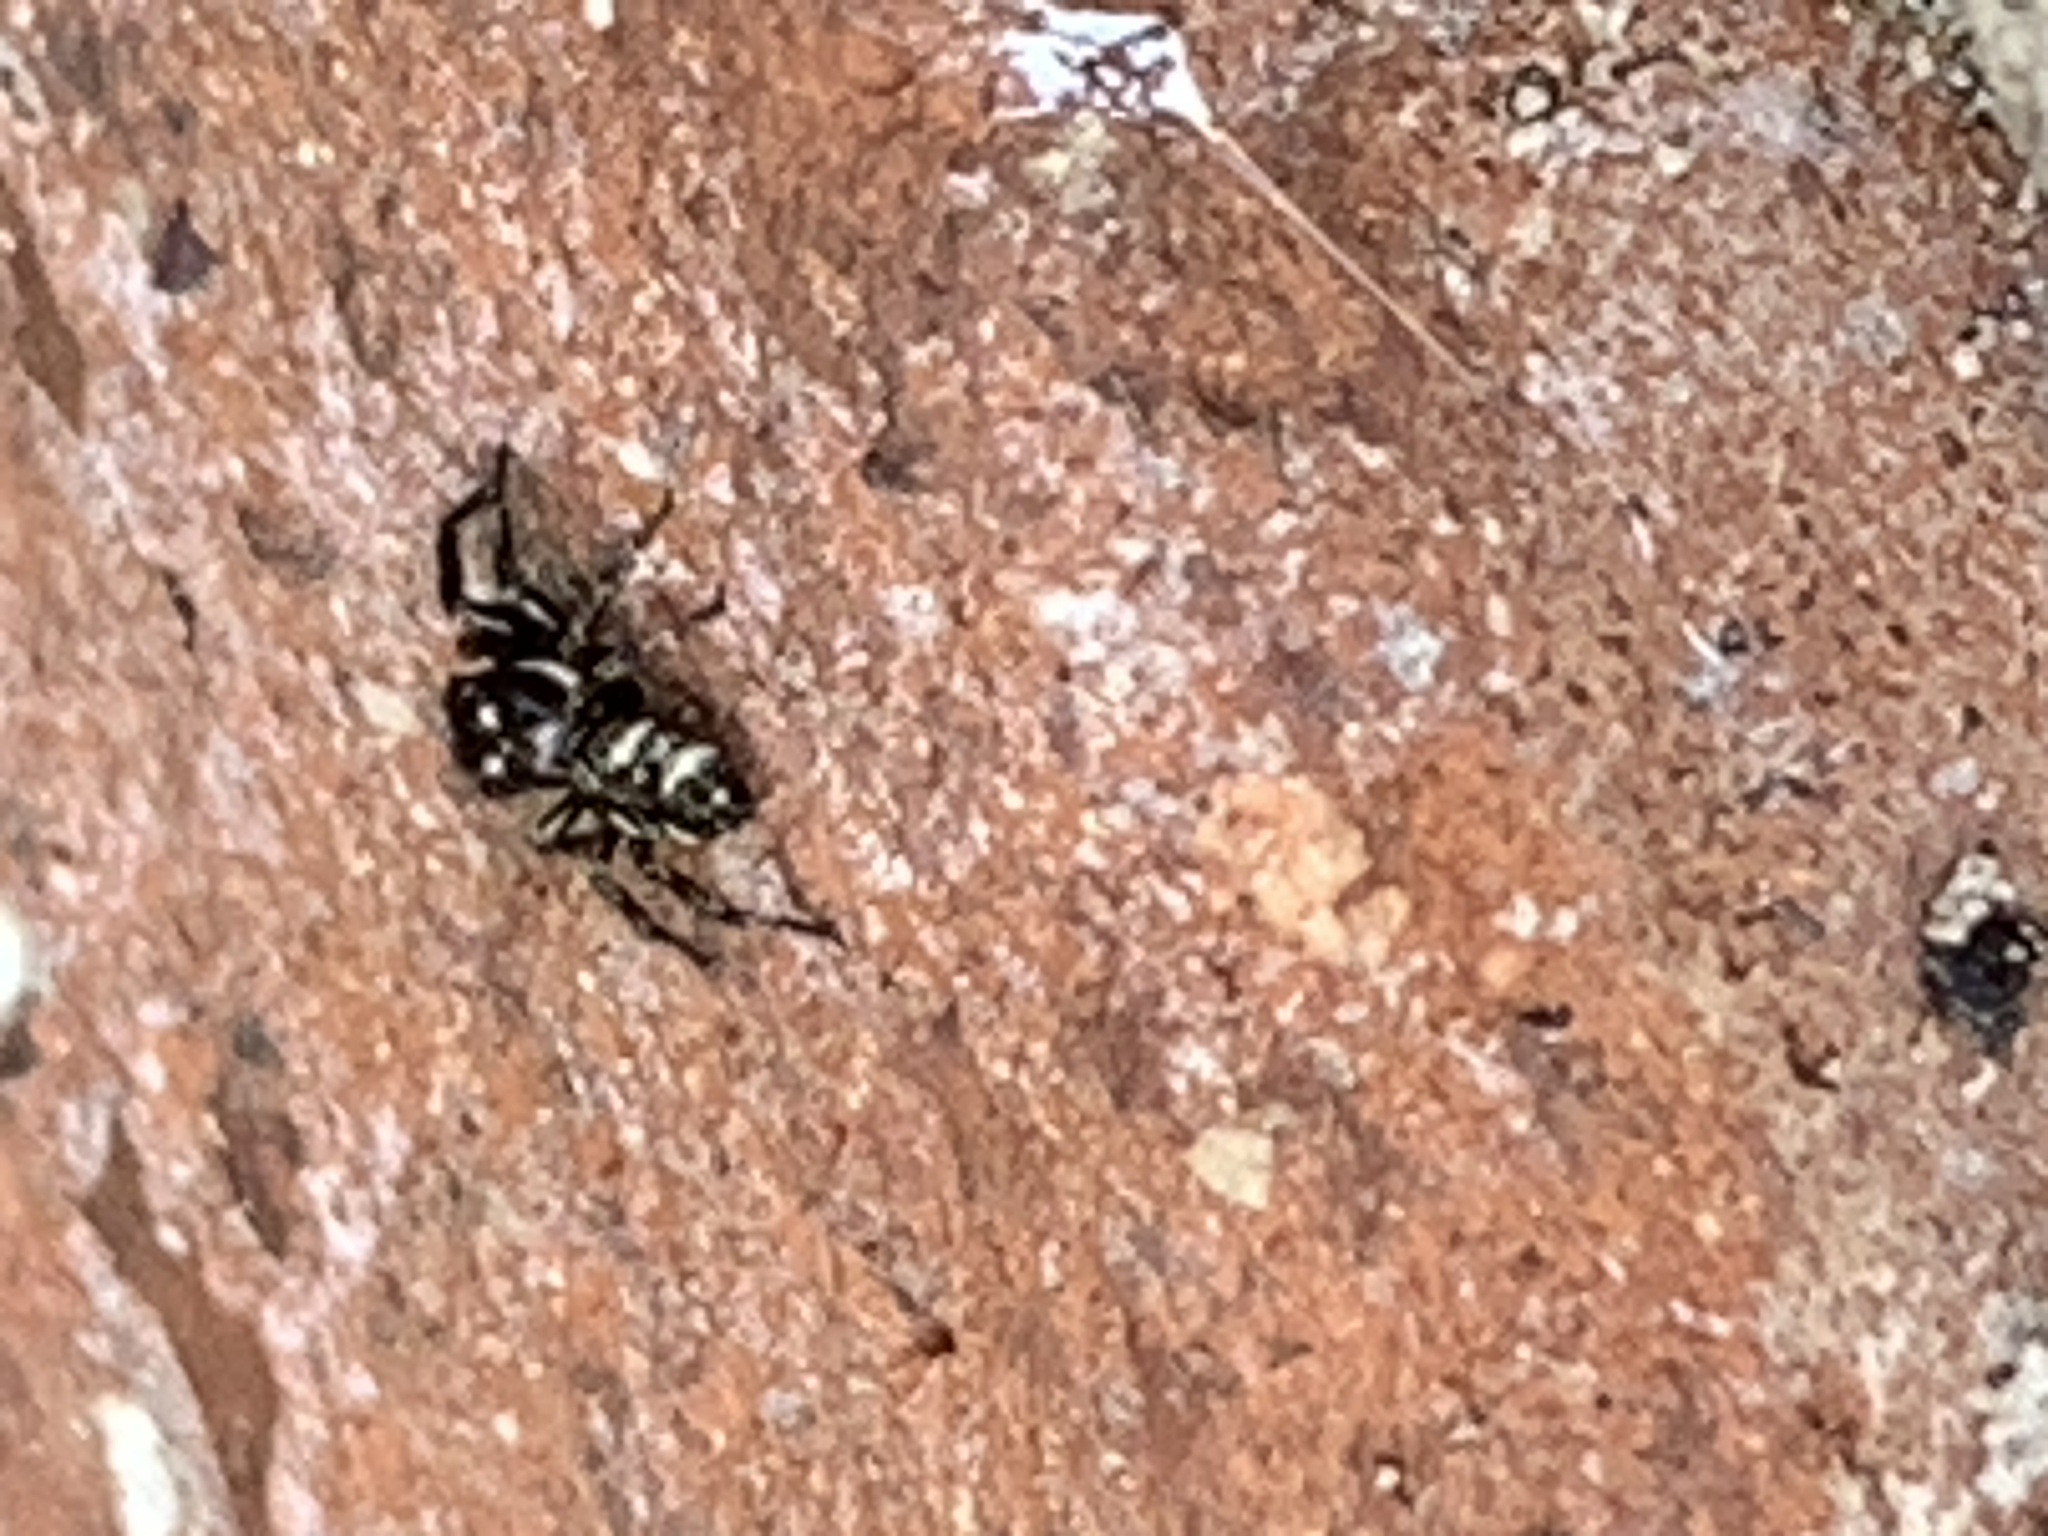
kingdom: Animalia
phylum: Arthropoda
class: Arachnida
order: Araneae
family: Salticidae
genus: Salticus
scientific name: Salticus scenicus
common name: Zebra jumper
